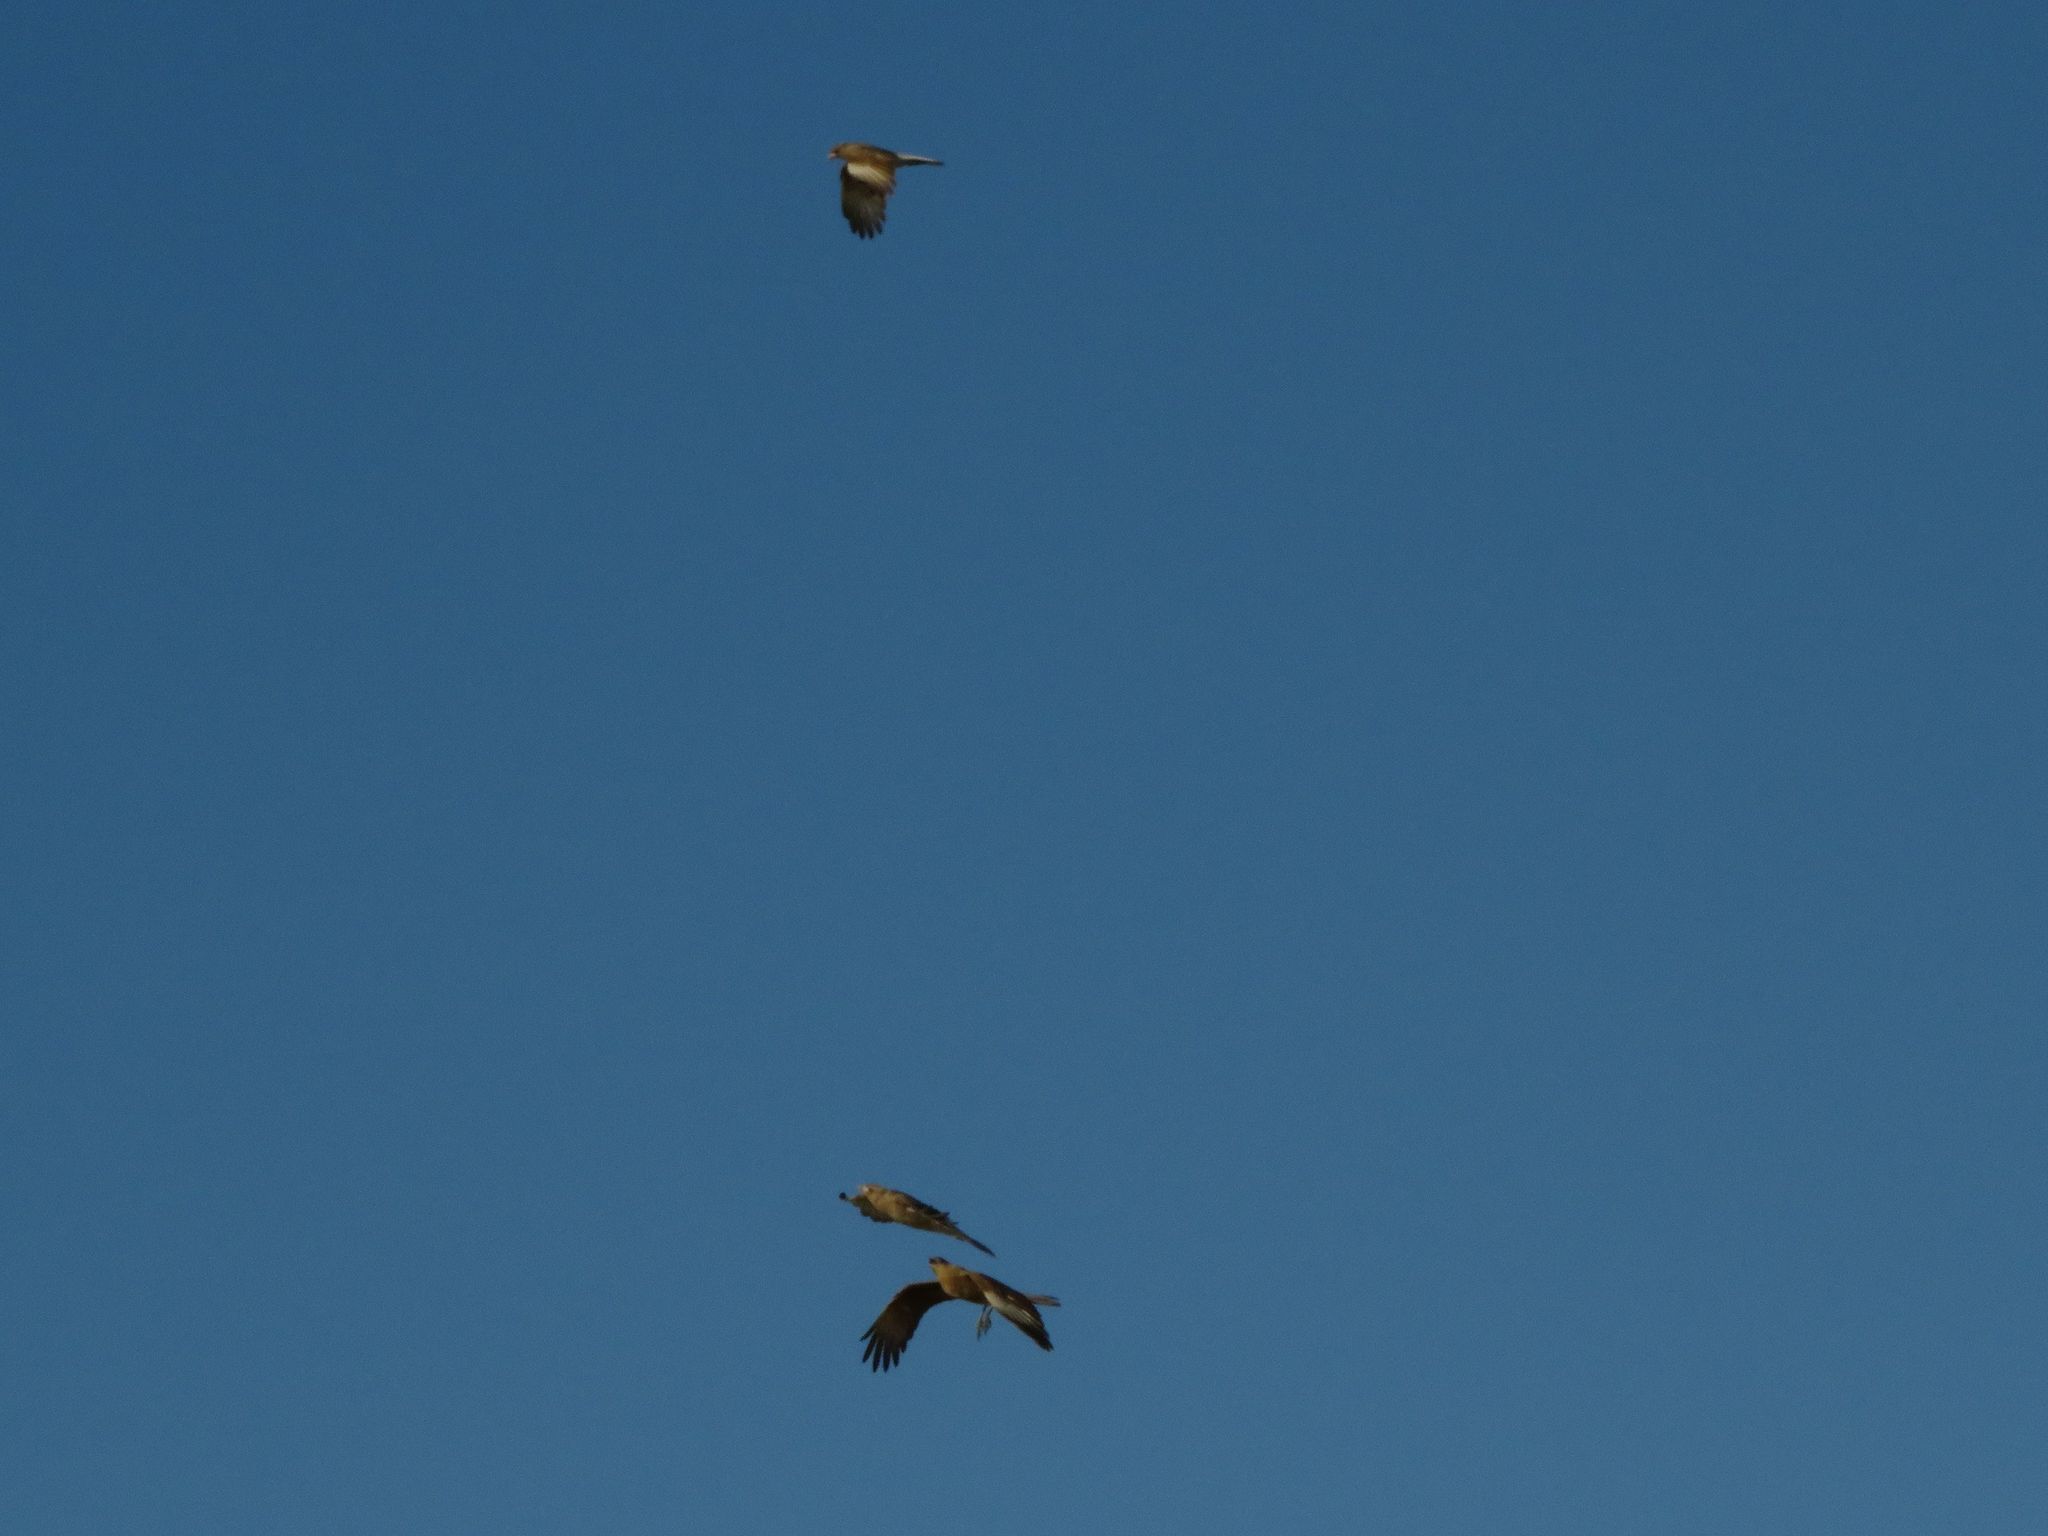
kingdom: Animalia
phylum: Chordata
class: Aves
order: Falconiformes
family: Falconidae
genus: Daptrius
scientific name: Daptrius
